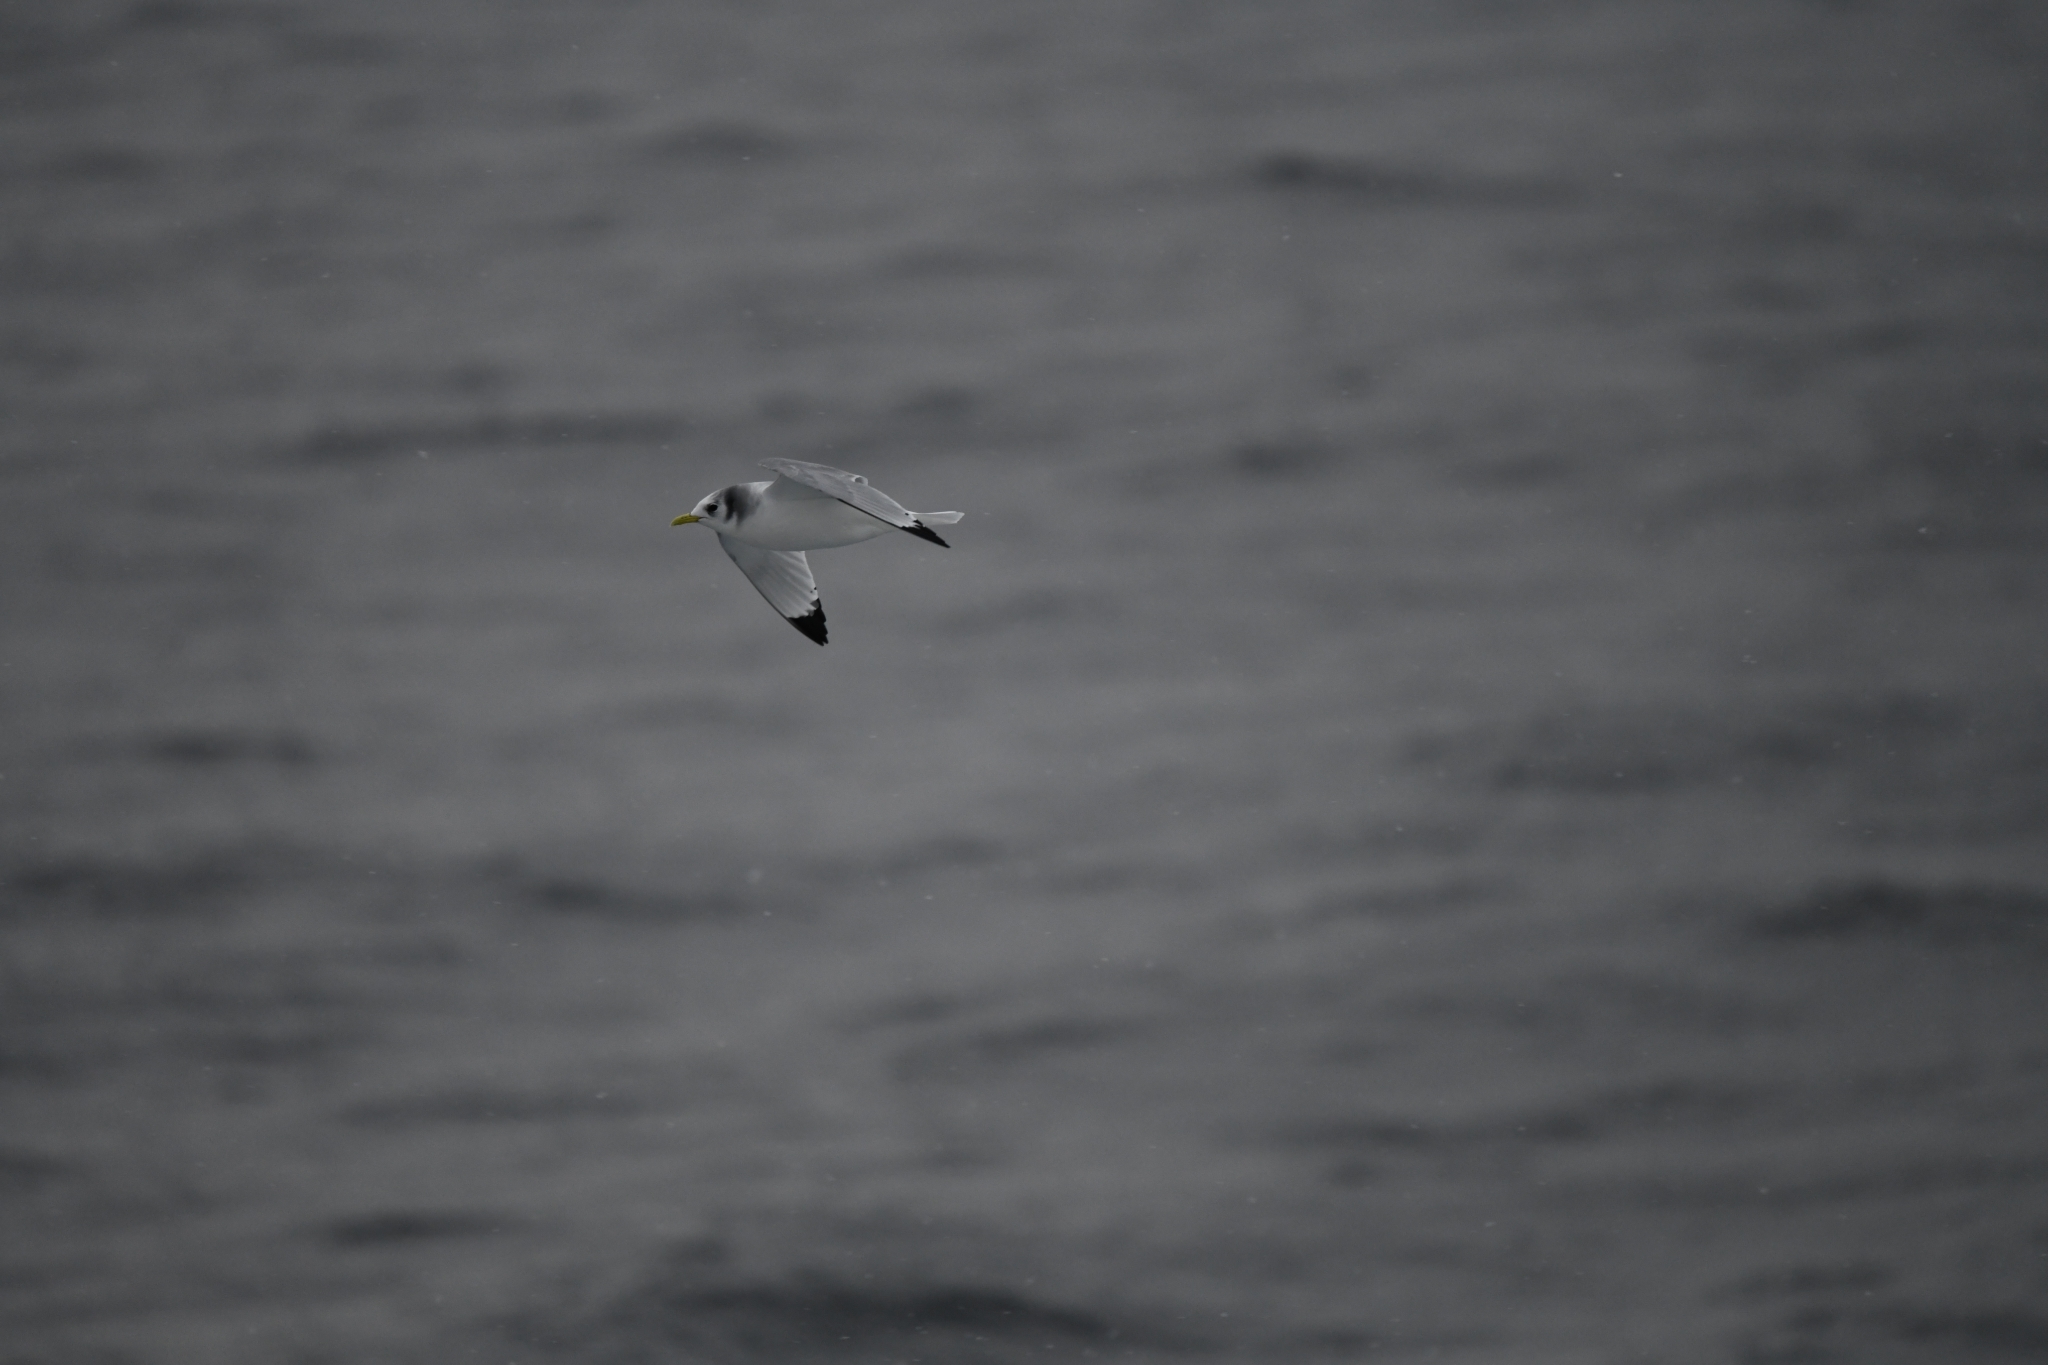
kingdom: Animalia
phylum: Chordata
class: Aves
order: Charadriiformes
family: Laridae
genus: Rissa
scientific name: Rissa tridactyla
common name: Black-legged kittiwake
